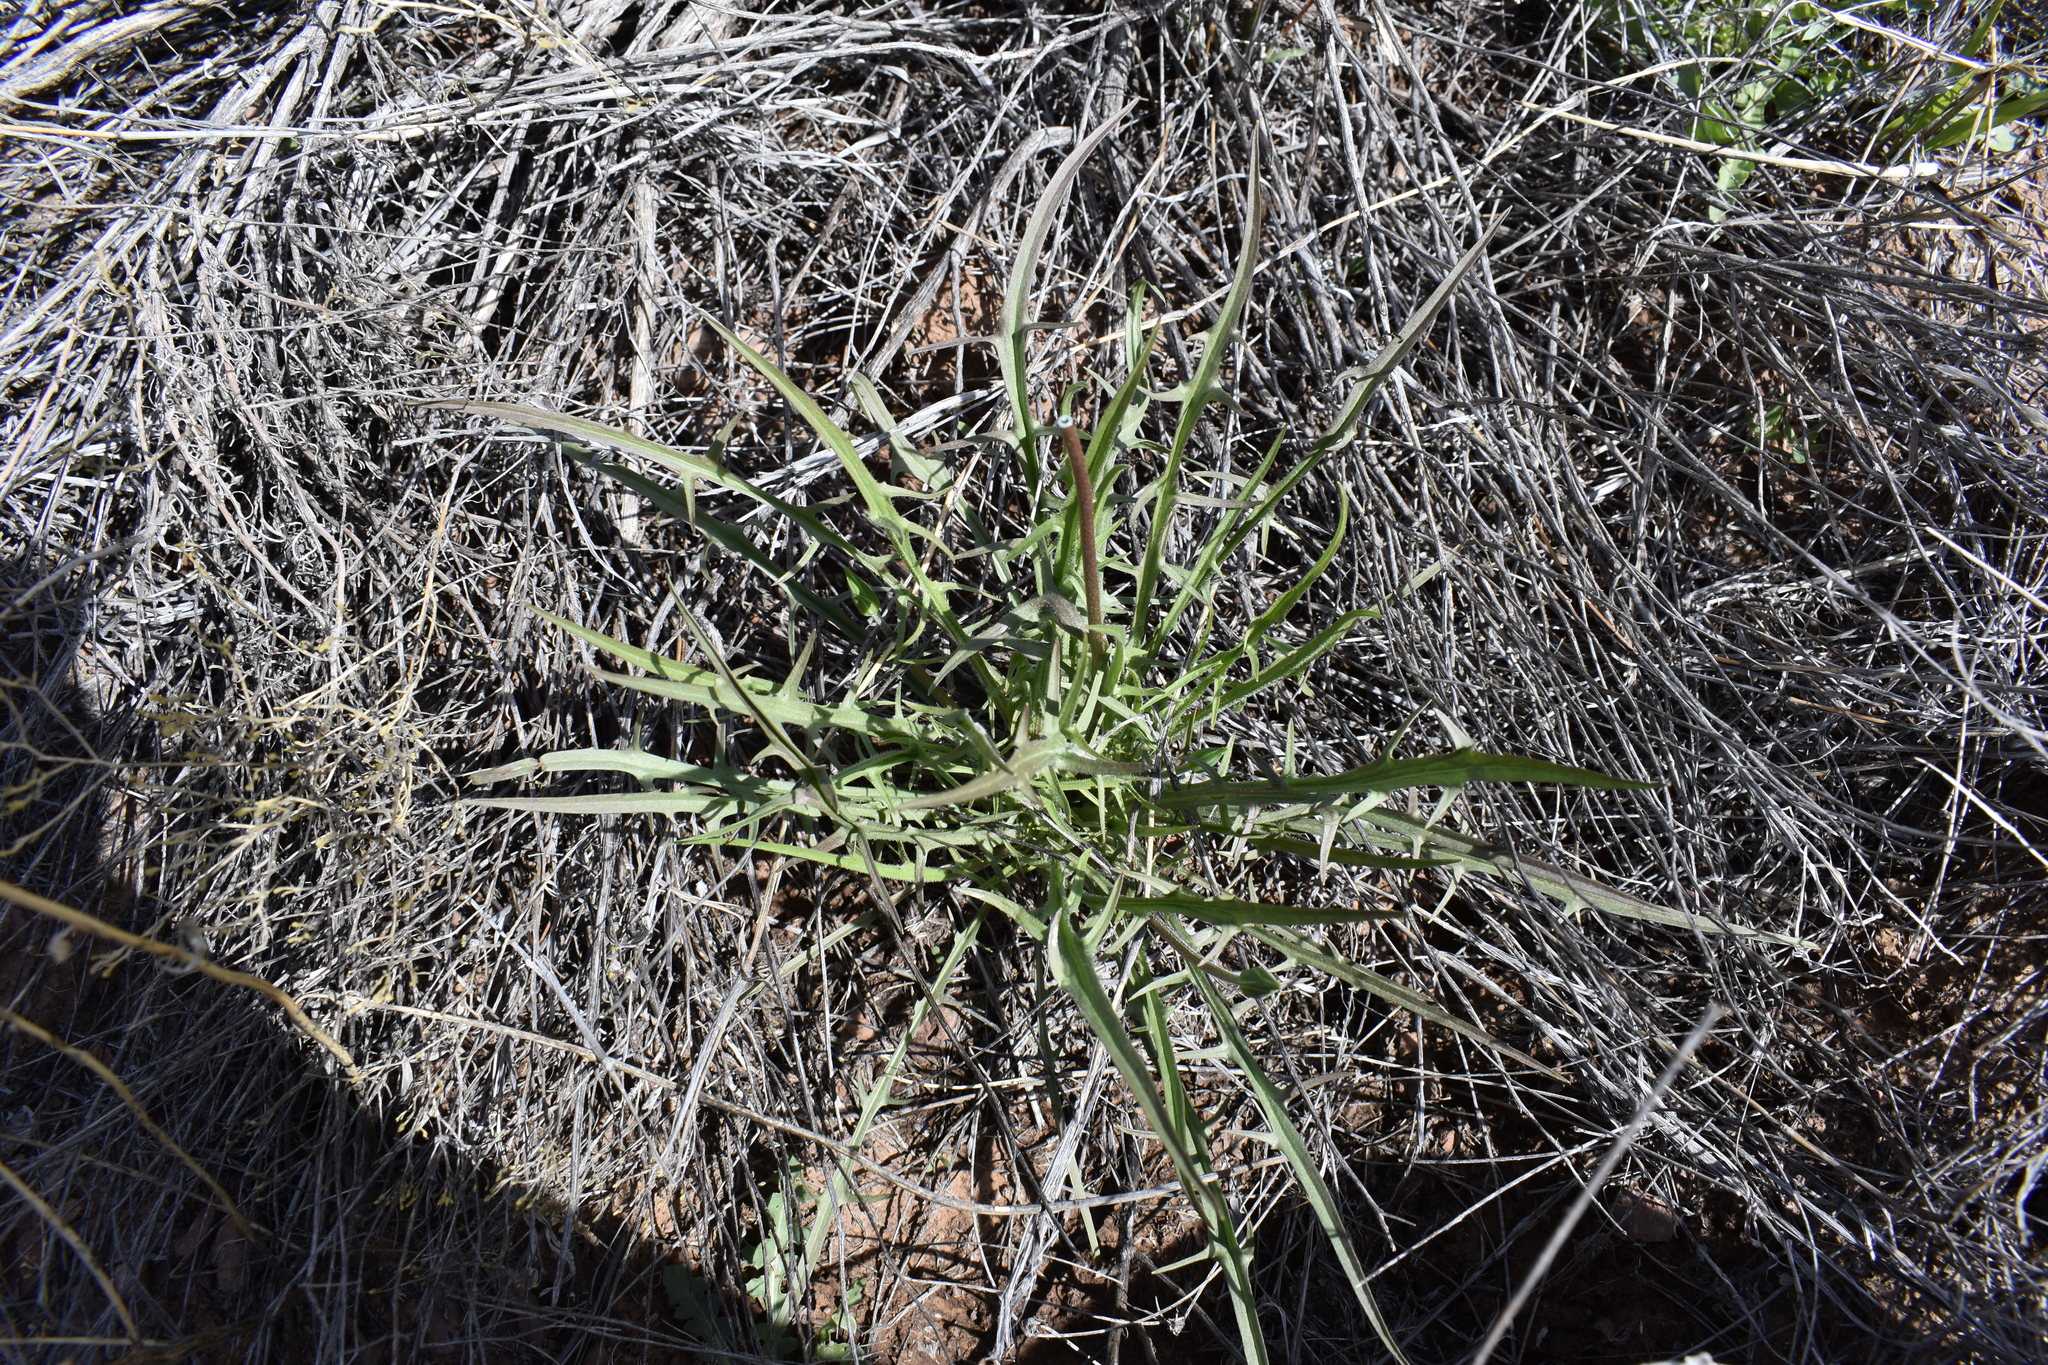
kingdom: Plantae
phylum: Tracheophyta
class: Magnoliopsida
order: Asterales
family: Asteraceae
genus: Microseris
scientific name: Microseris lindleyi
